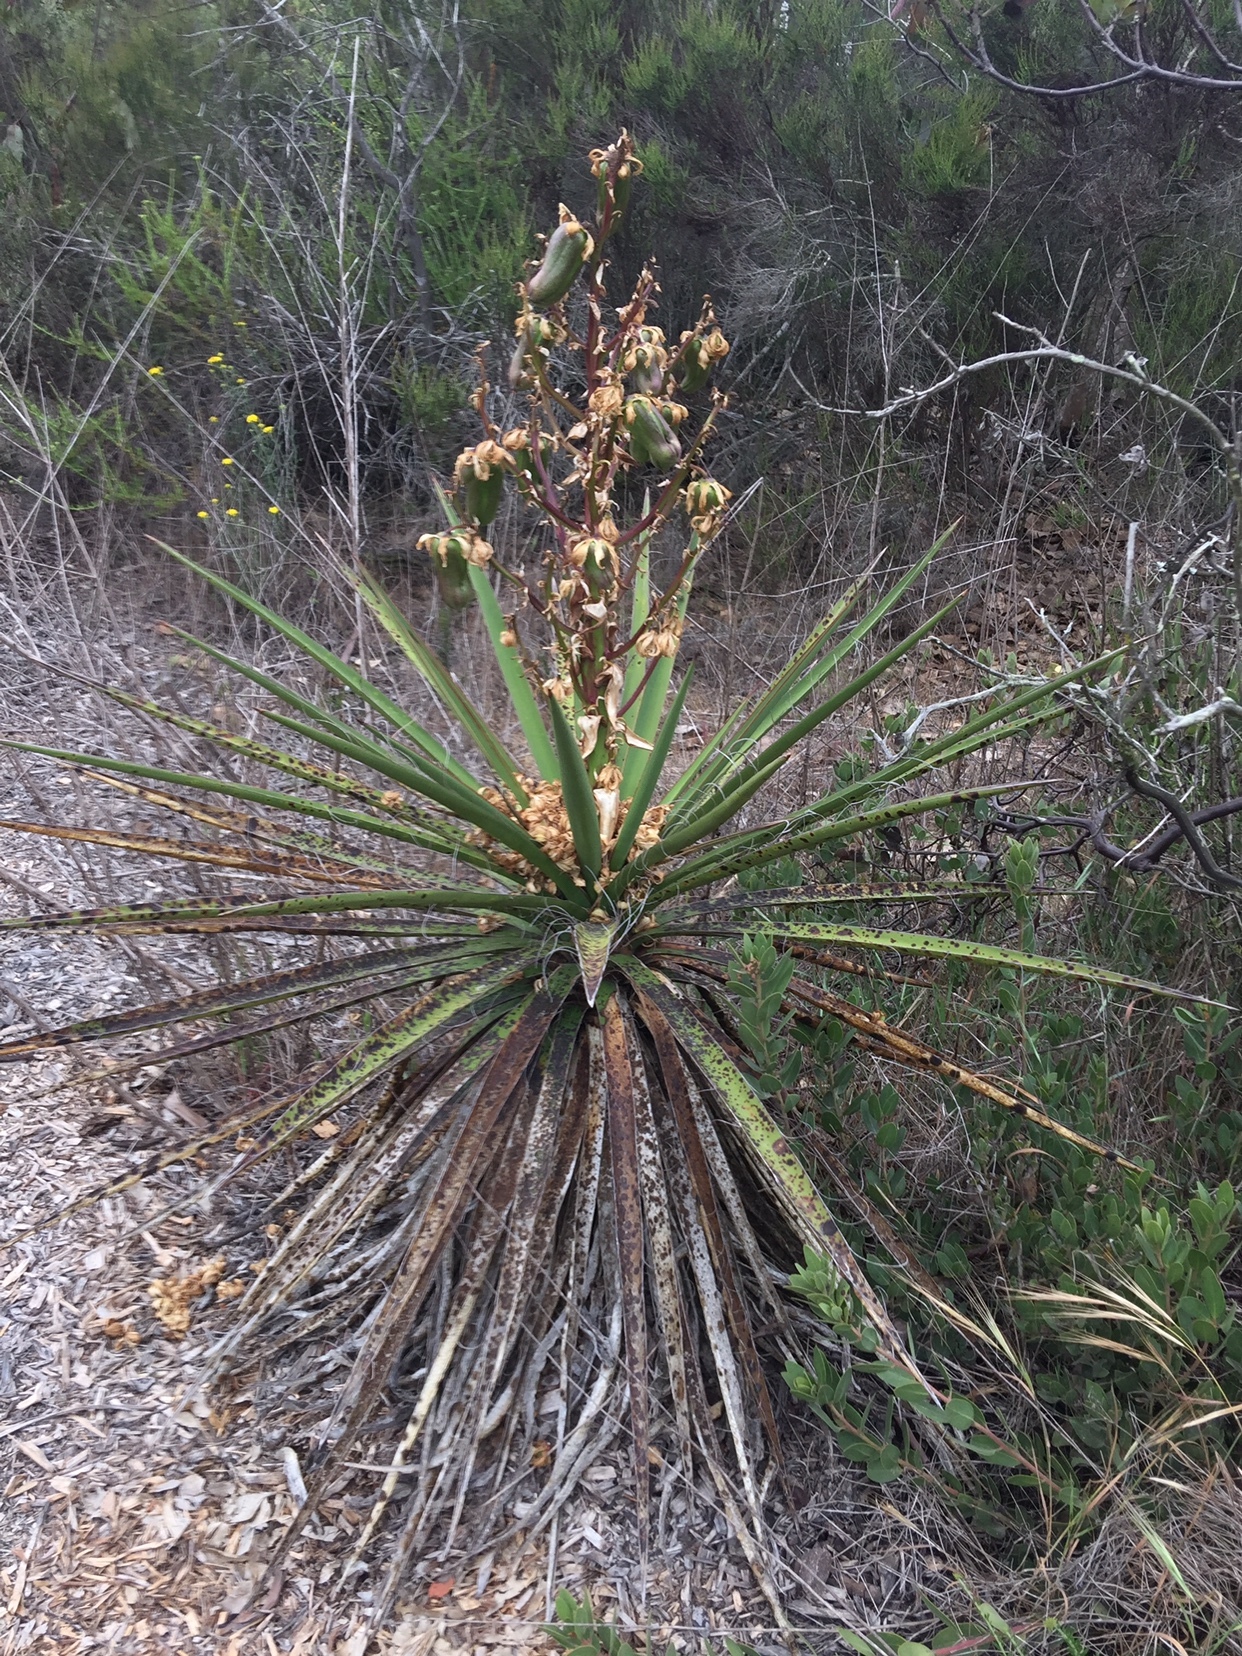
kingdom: Plantae
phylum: Tracheophyta
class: Liliopsida
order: Asparagales
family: Asparagaceae
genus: Yucca
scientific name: Yucca schidigera
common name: Mojave yucca
